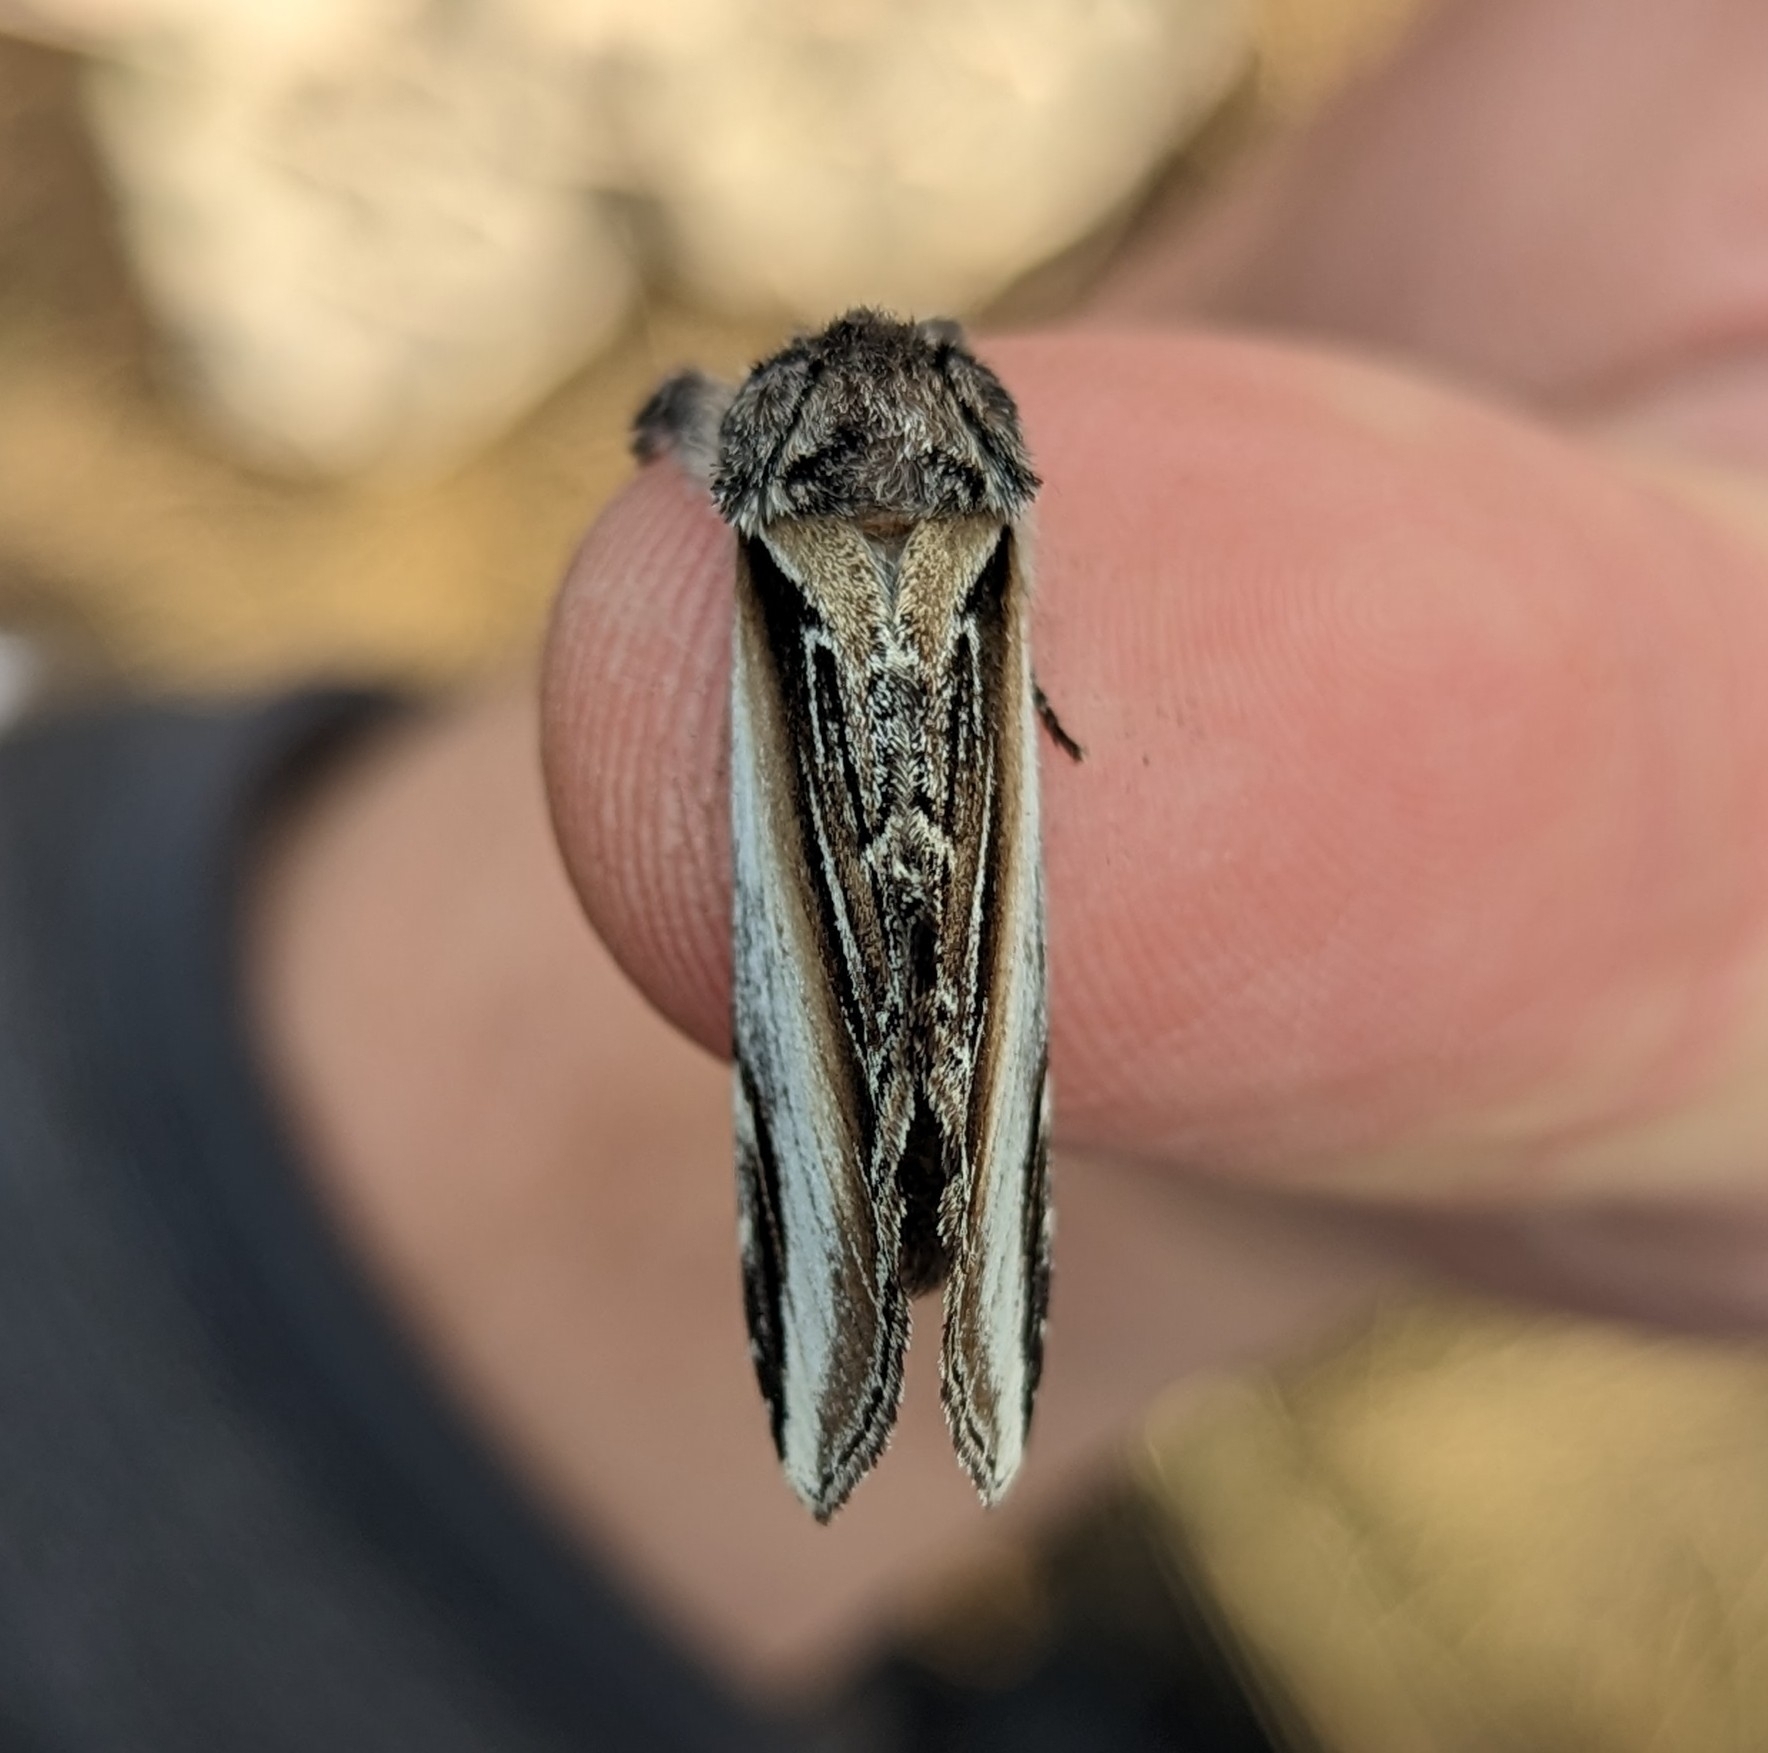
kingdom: Animalia
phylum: Arthropoda
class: Insecta
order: Lepidoptera
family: Notodontidae
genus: Pheosia
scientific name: Pheosia rimosa
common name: Black-rimmed prominent
